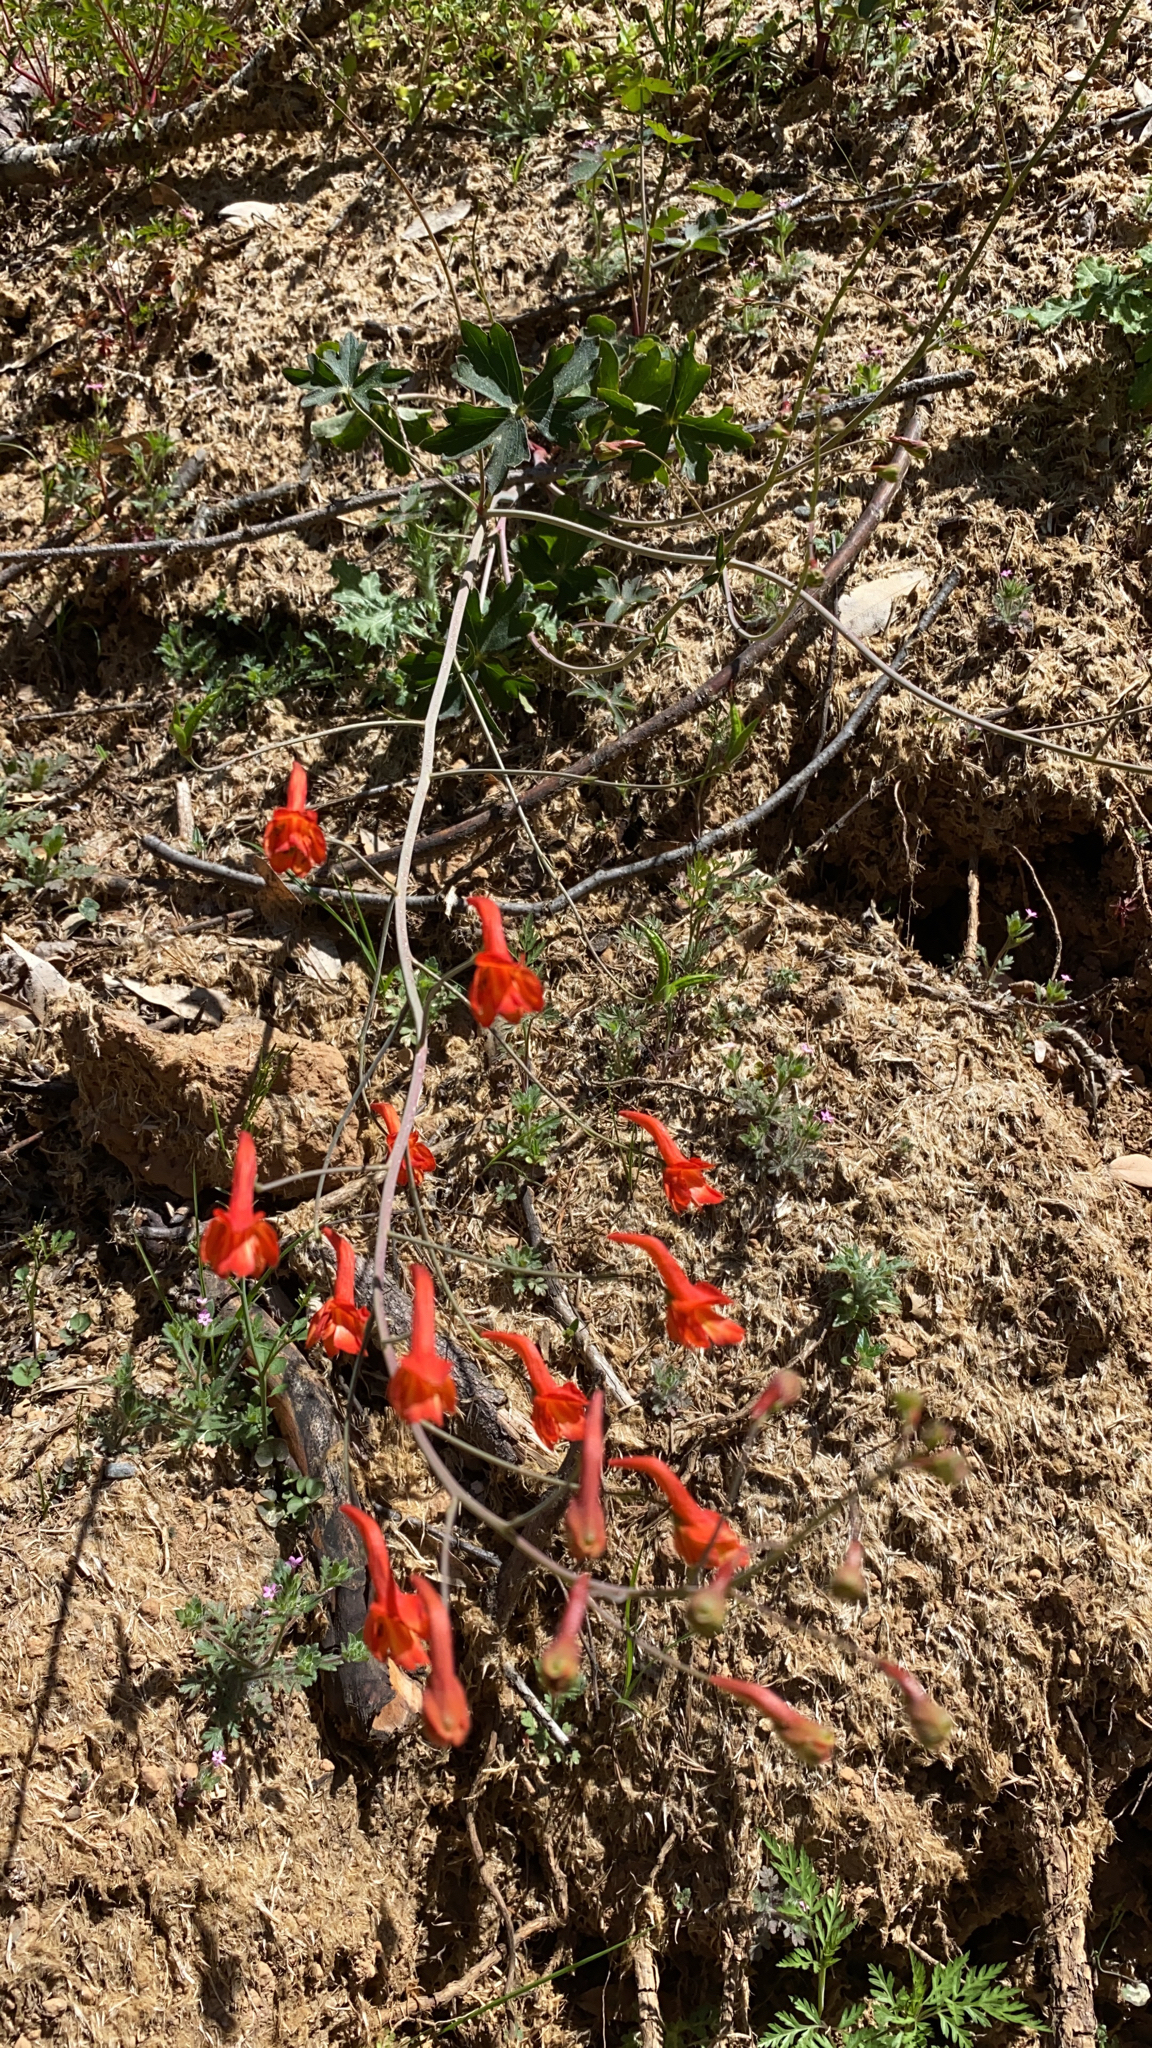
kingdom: Plantae
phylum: Tracheophyta
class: Magnoliopsida
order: Ranunculales
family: Ranunculaceae
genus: Delphinium
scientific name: Delphinium nudicaule
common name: Red larkspur
